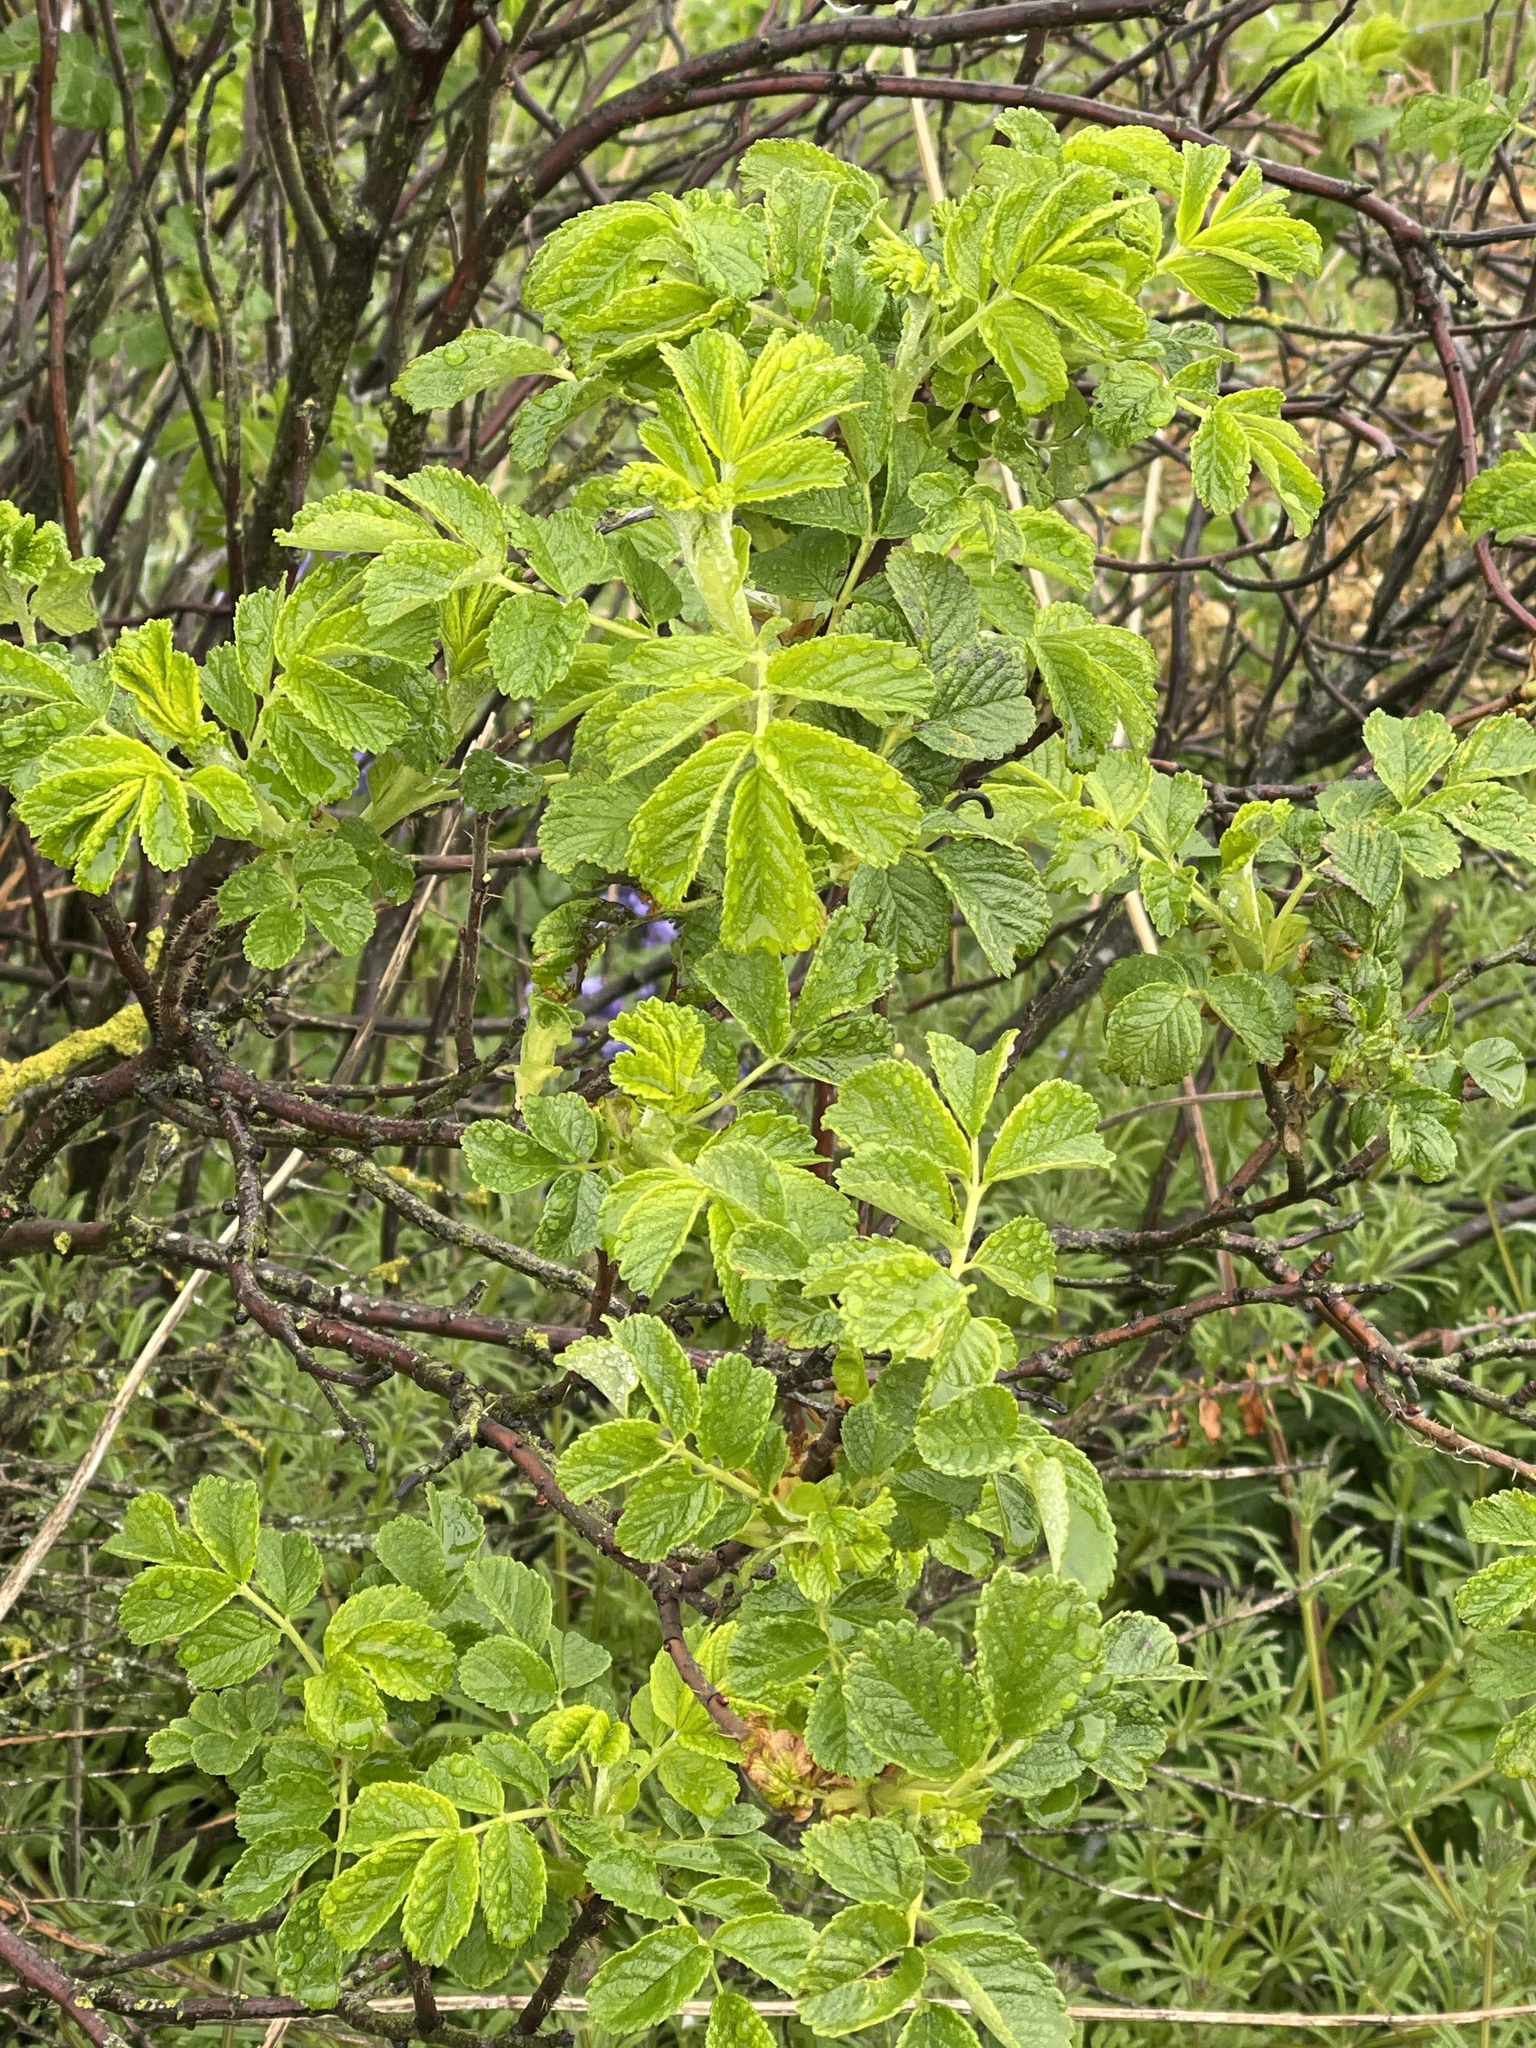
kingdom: Plantae
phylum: Tracheophyta
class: Magnoliopsida
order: Rosales
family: Rosaceae
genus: Rosa
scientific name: Rosa rugosa
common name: Japanese rose
